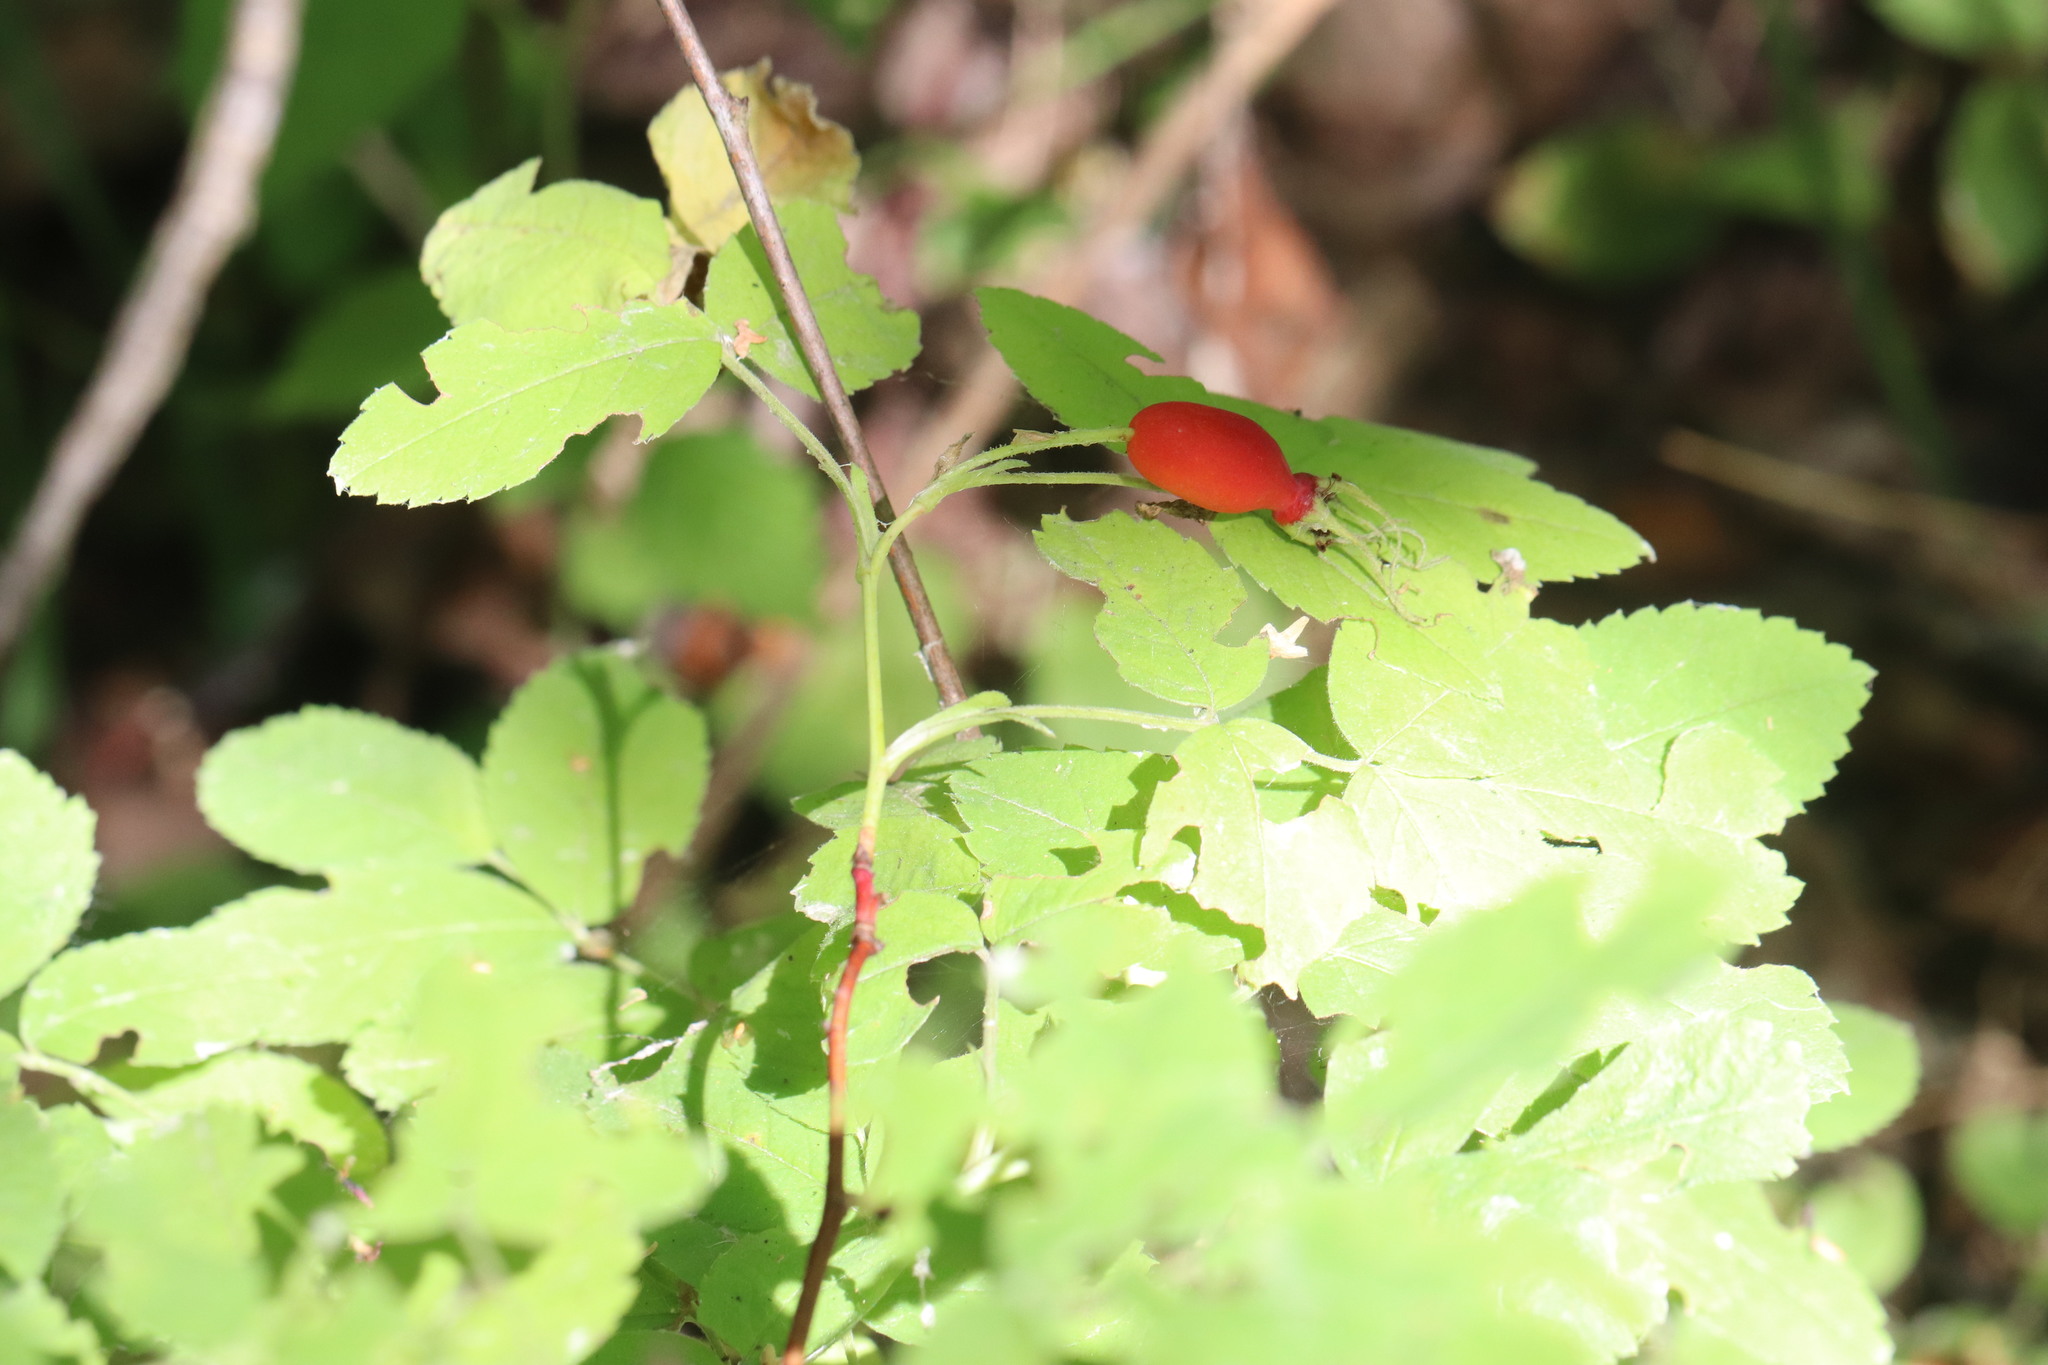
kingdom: Plantae
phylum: Tracheophyta
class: Magnoliopsida
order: Rosales
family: Rosaceae
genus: Rosa
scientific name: Rosa acicularis
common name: Prickly rose
